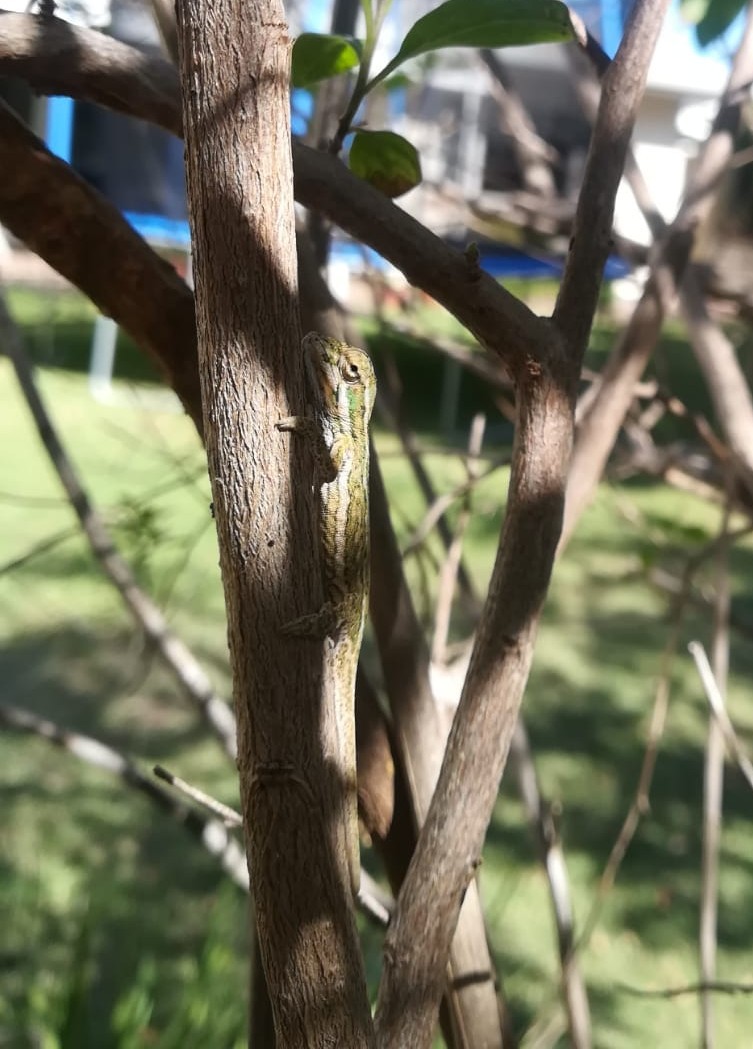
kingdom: Animalia
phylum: Chordata
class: Squamata
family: Chamaeleonidae
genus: Bradypodion
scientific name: Bradypodion pumilum
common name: Cape dwarf chameleon
